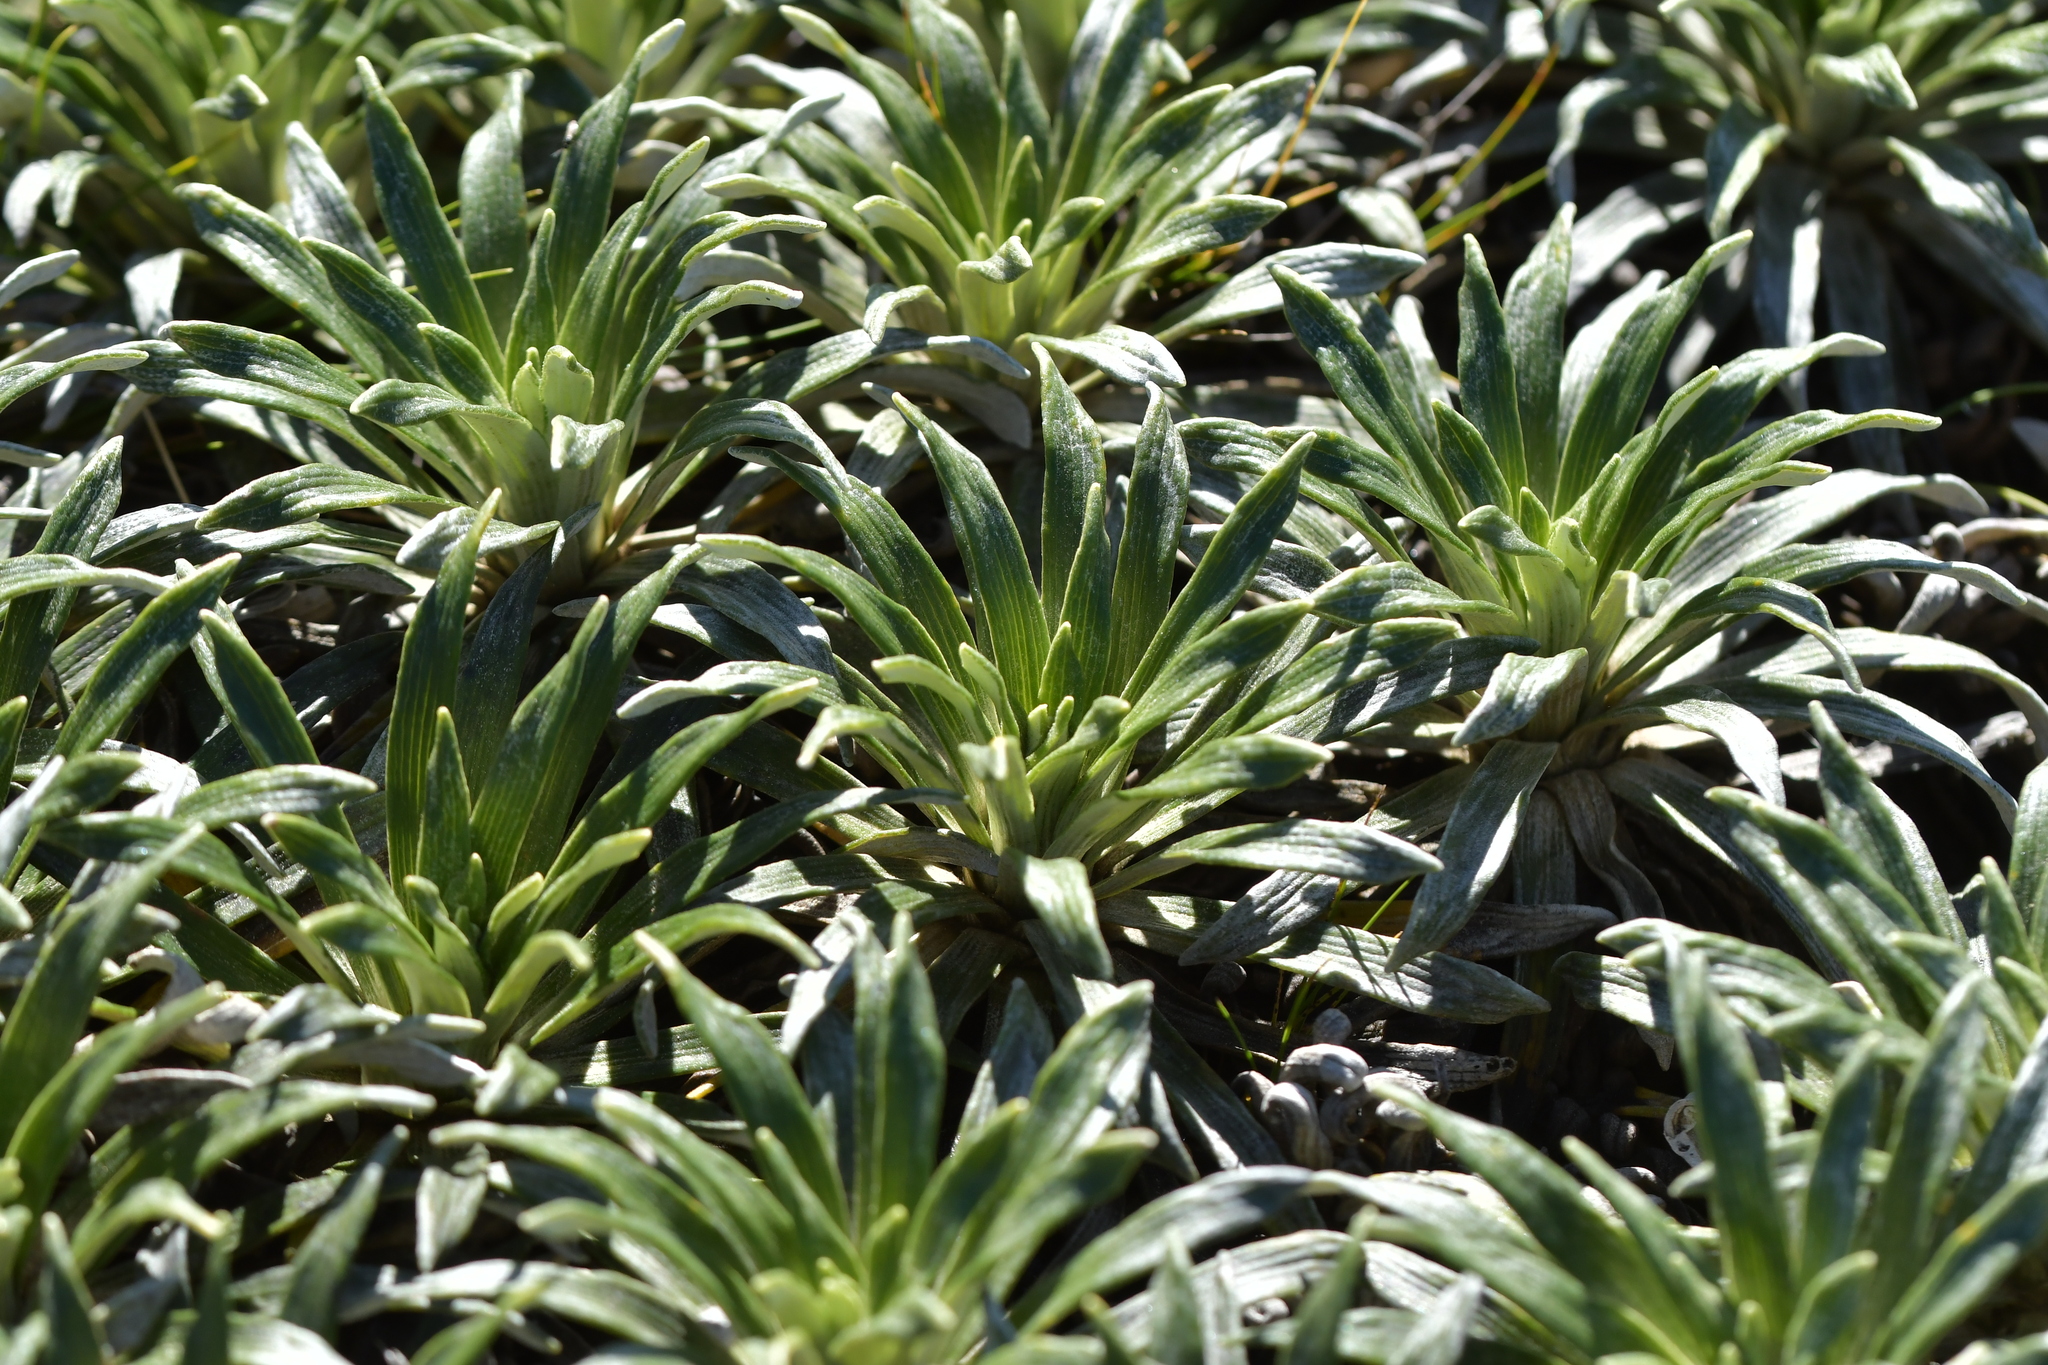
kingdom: Plantae
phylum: Tracheophyta
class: Magnoliopsida
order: Asterales
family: Asteraceae
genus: Celmisia
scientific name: Celmisia viscosa
